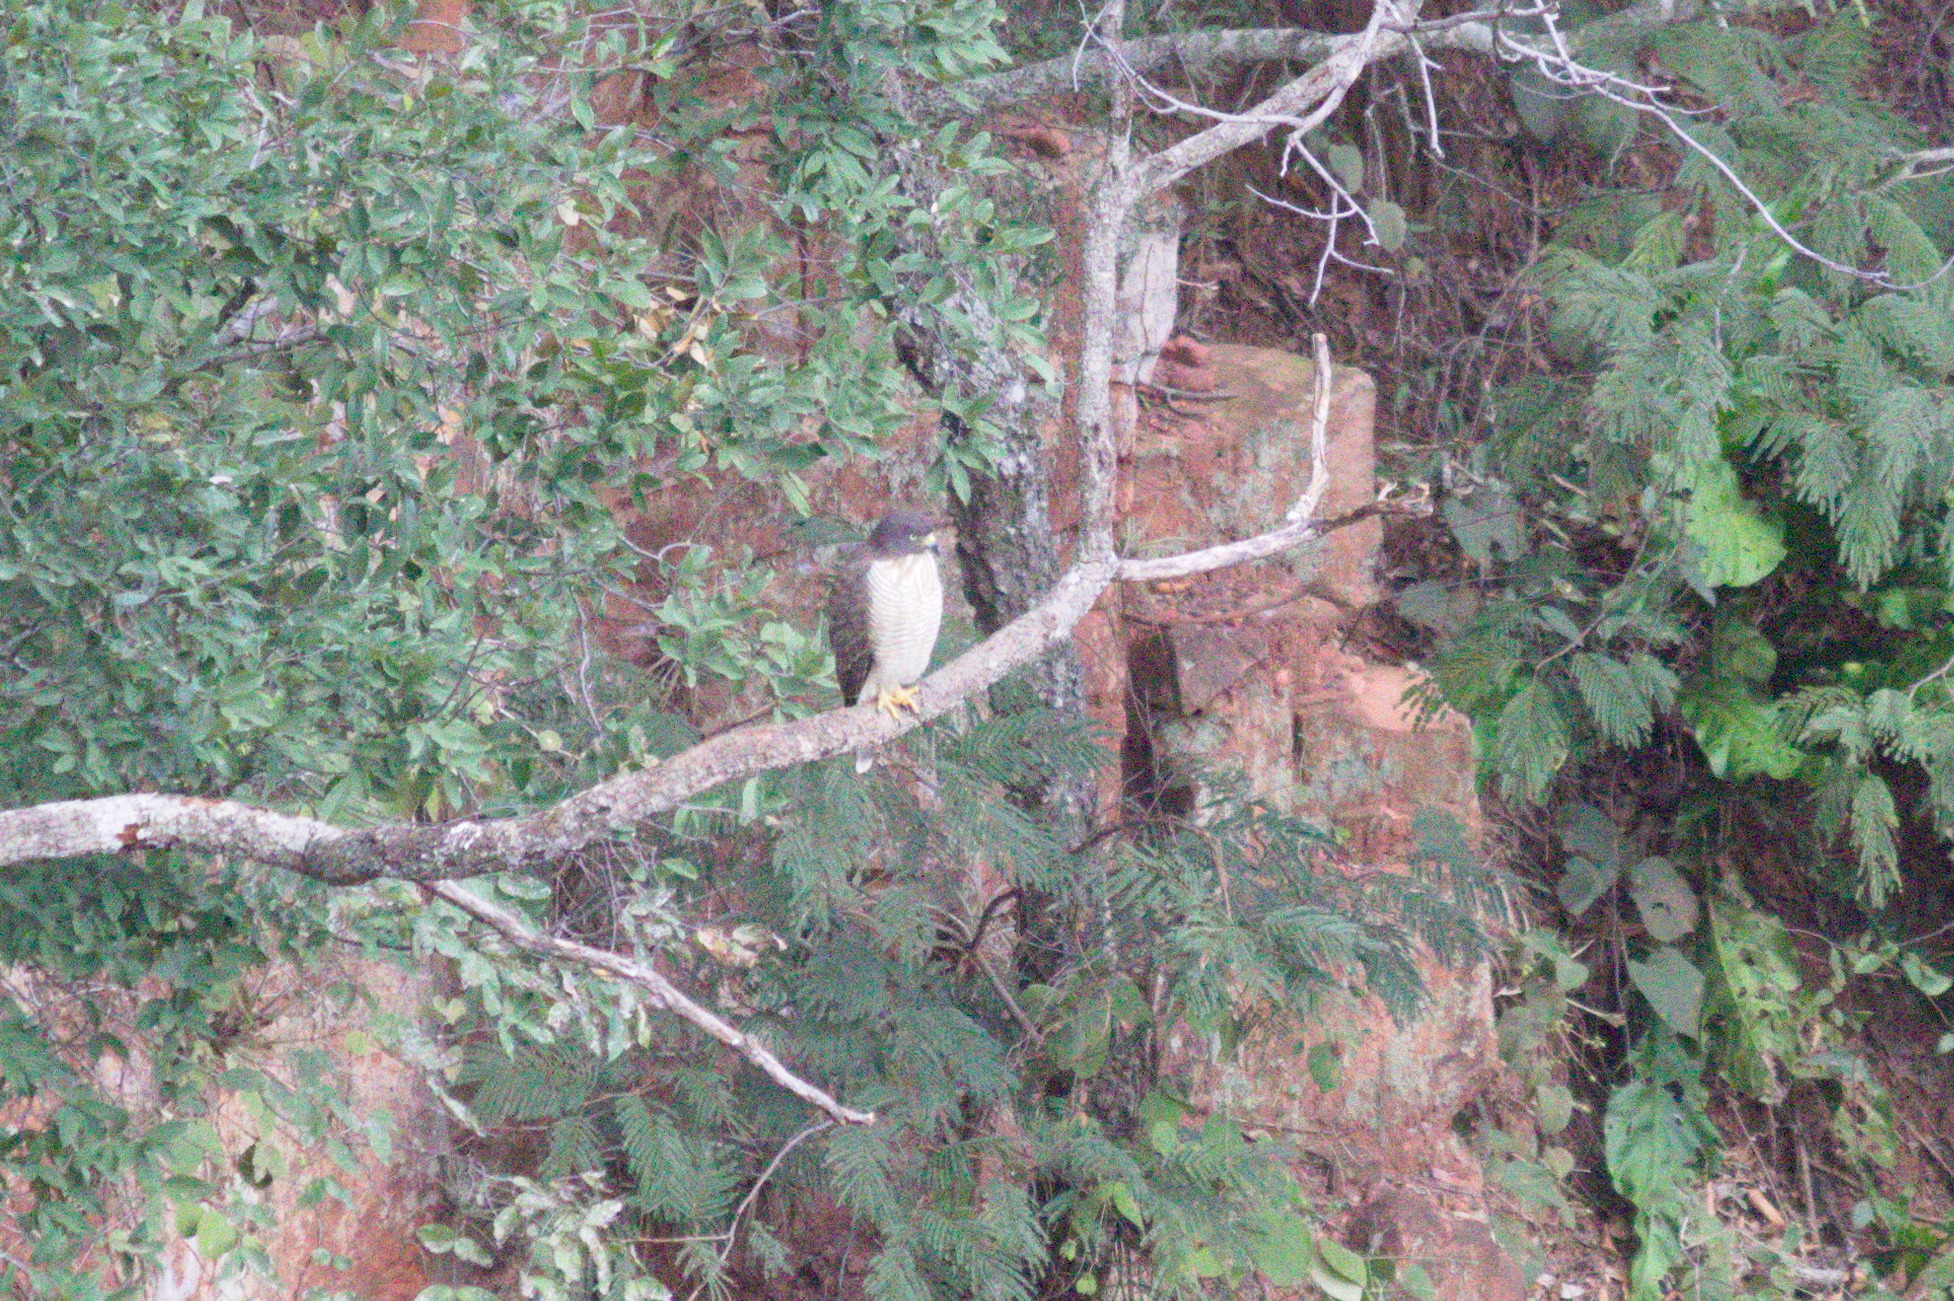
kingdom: Animalia
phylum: Chordata
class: Aves
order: Accipitriformes
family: Accipitridae
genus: Rupornis
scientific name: Rupornis magnirostris
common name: Roadside hawk
